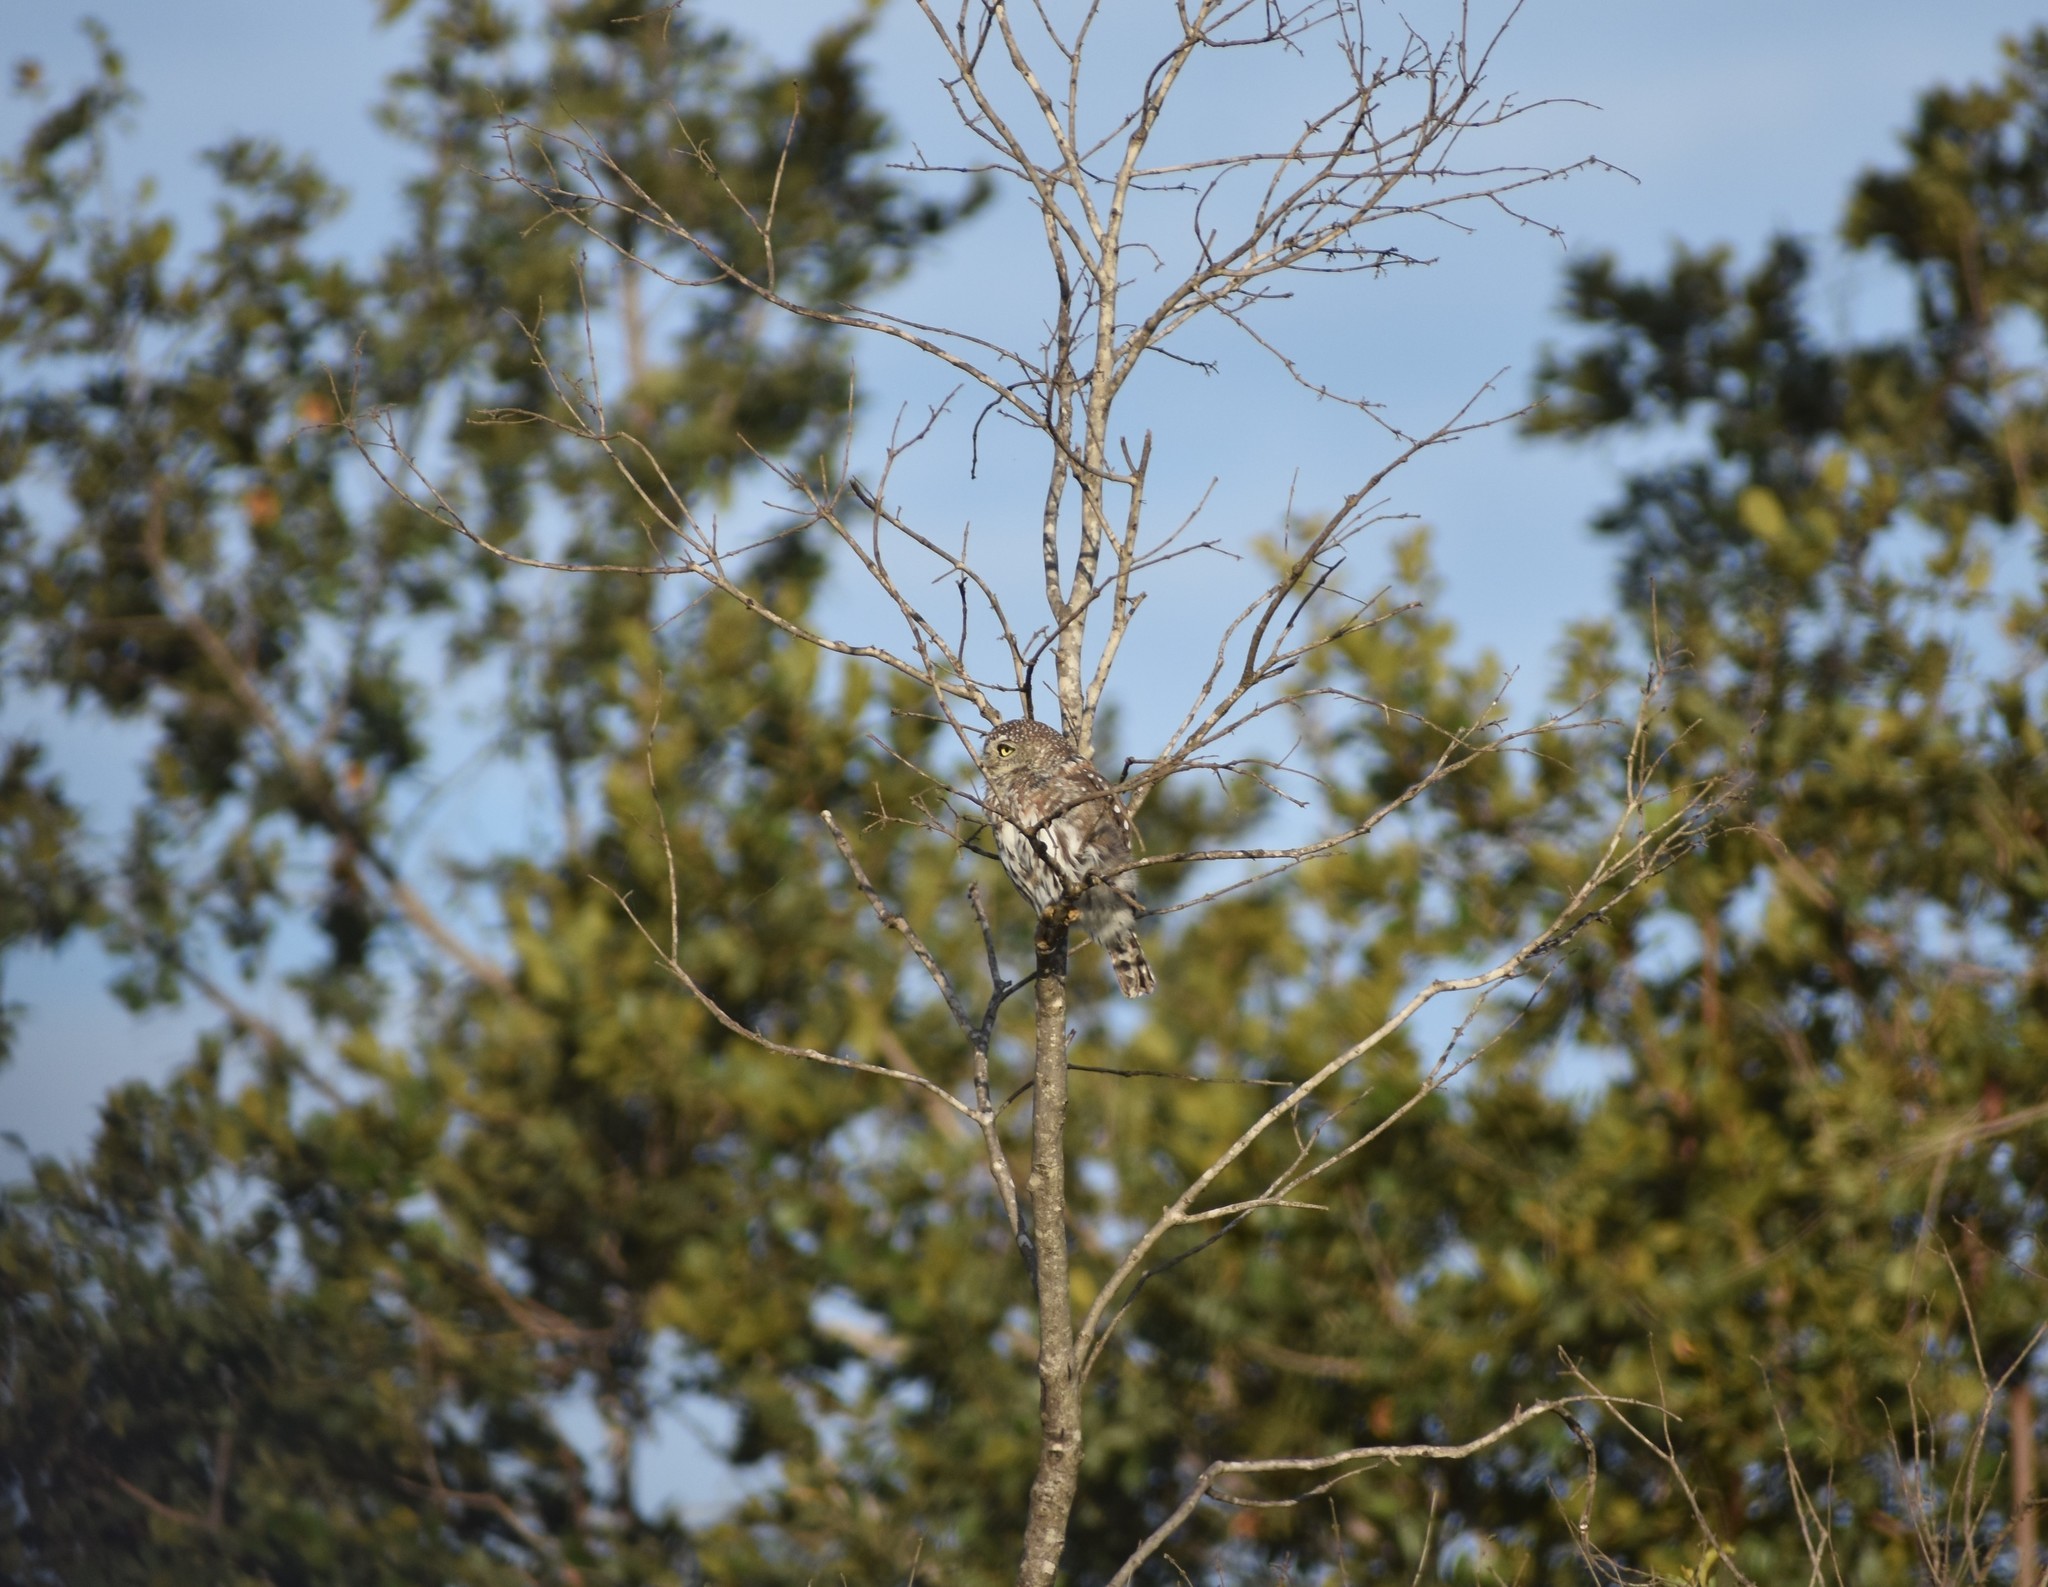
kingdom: Animalia
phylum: Chordata
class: Aves
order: Strigiformes
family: Strigidae
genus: Glaucidium
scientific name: Glaucidium perlatum
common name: Pearl-spotted owlet
